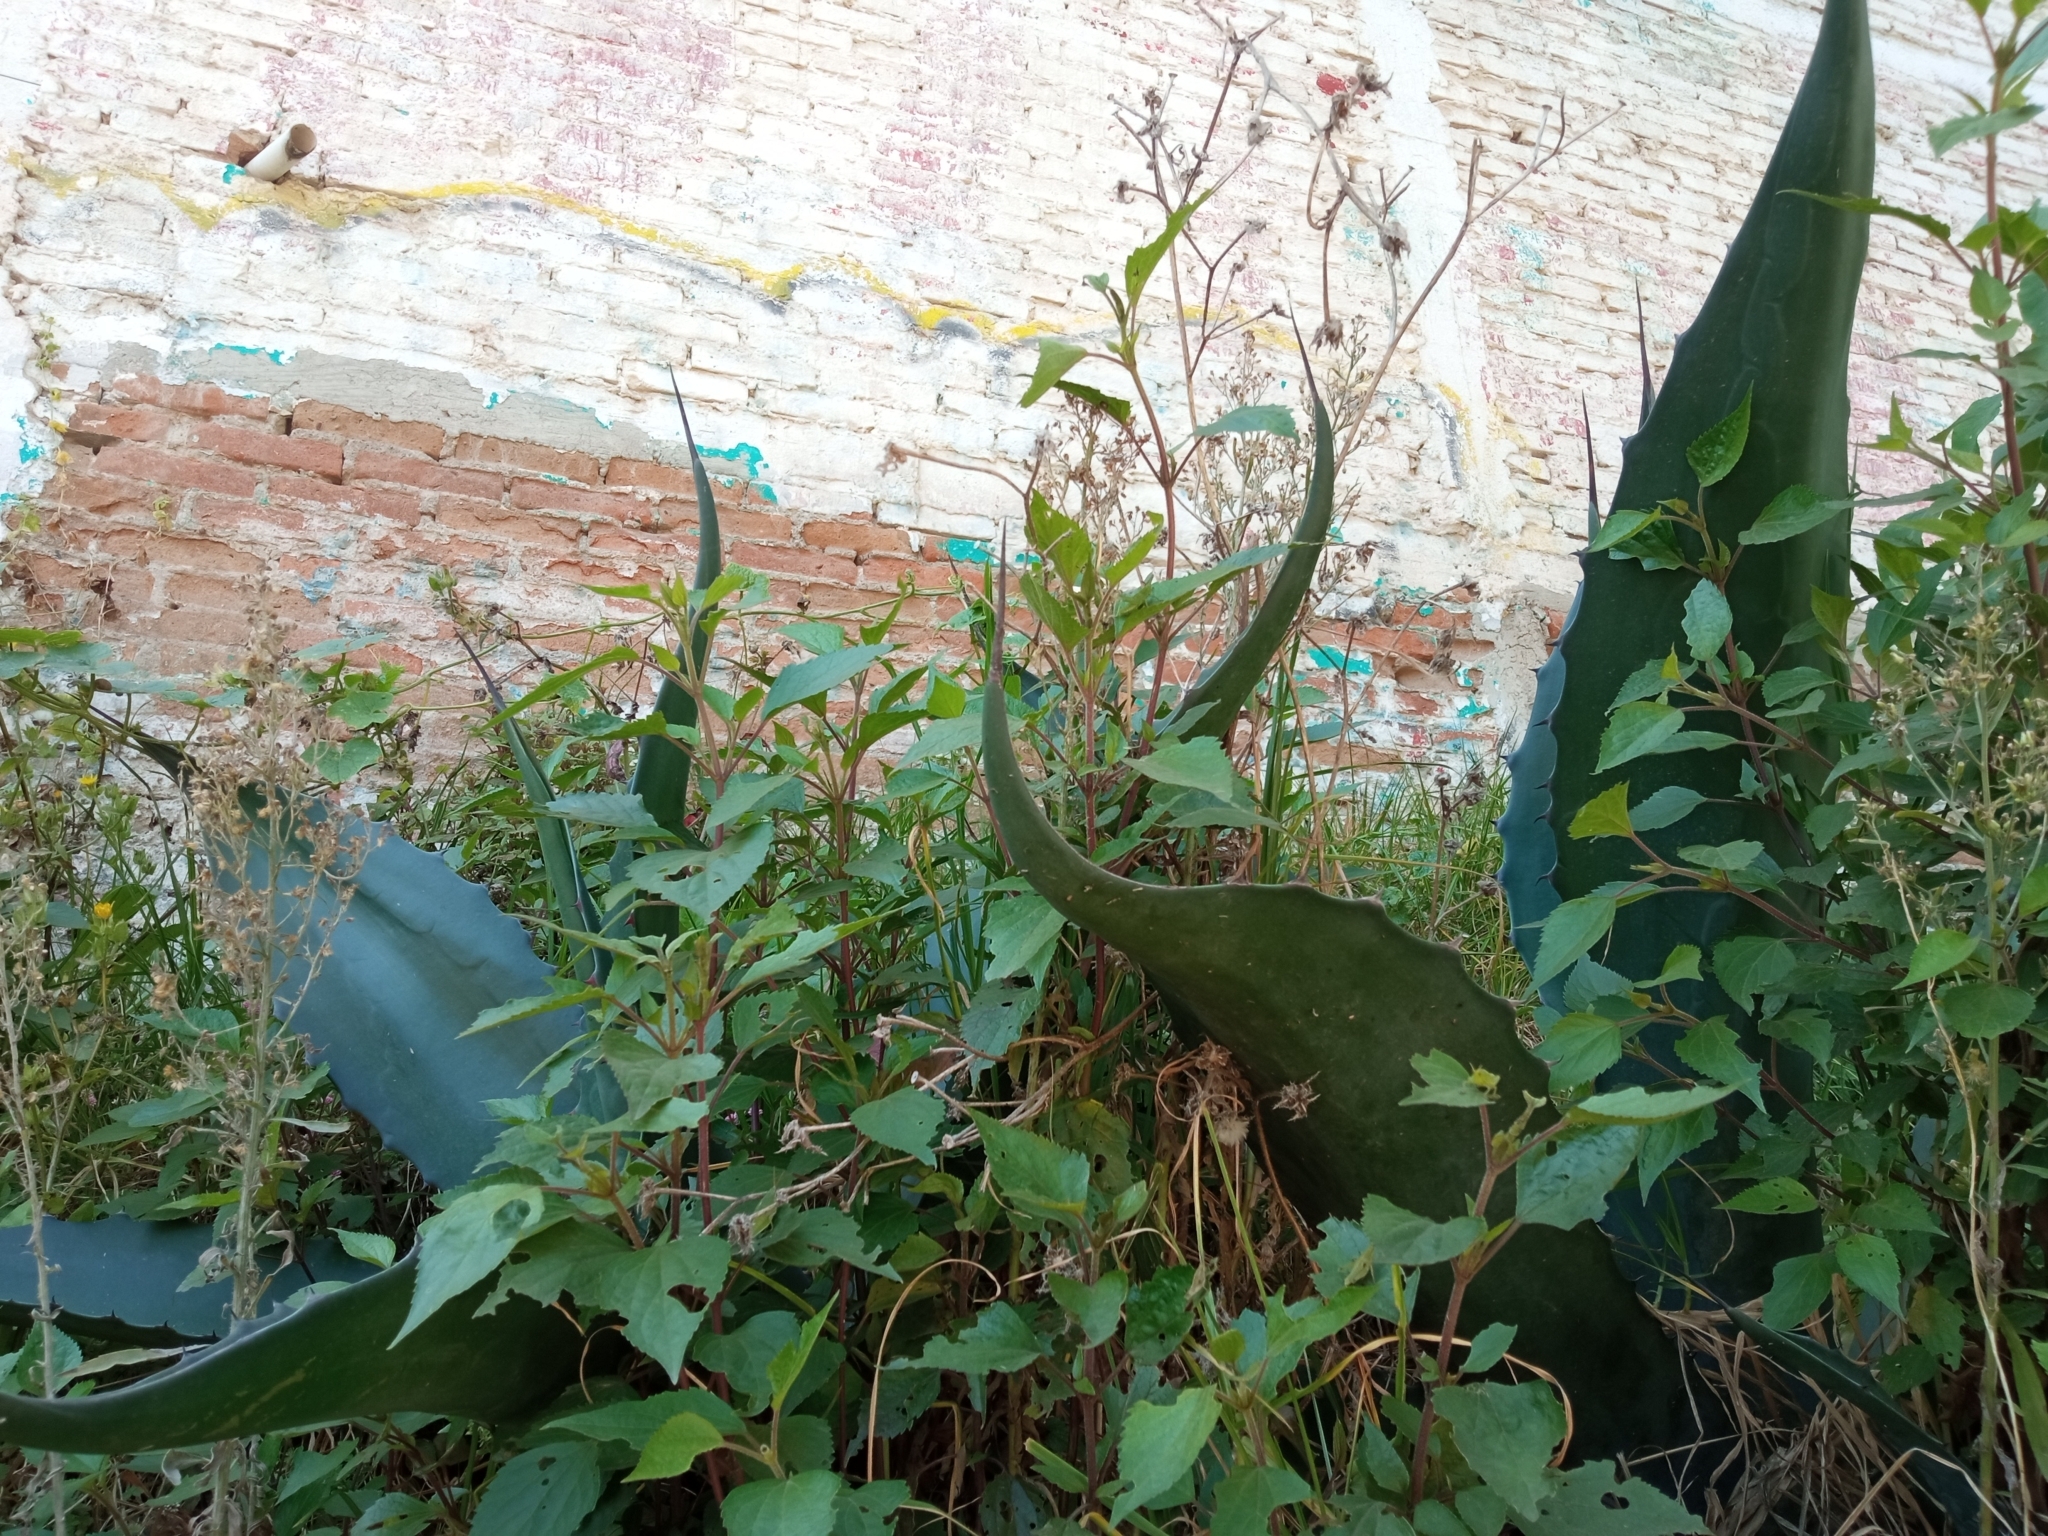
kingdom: Plantae
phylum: Tracheophyta
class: Liliopsida
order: Asparagales
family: Asparagaceae
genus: Agave
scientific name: Agave salmiana
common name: Pulque agave
